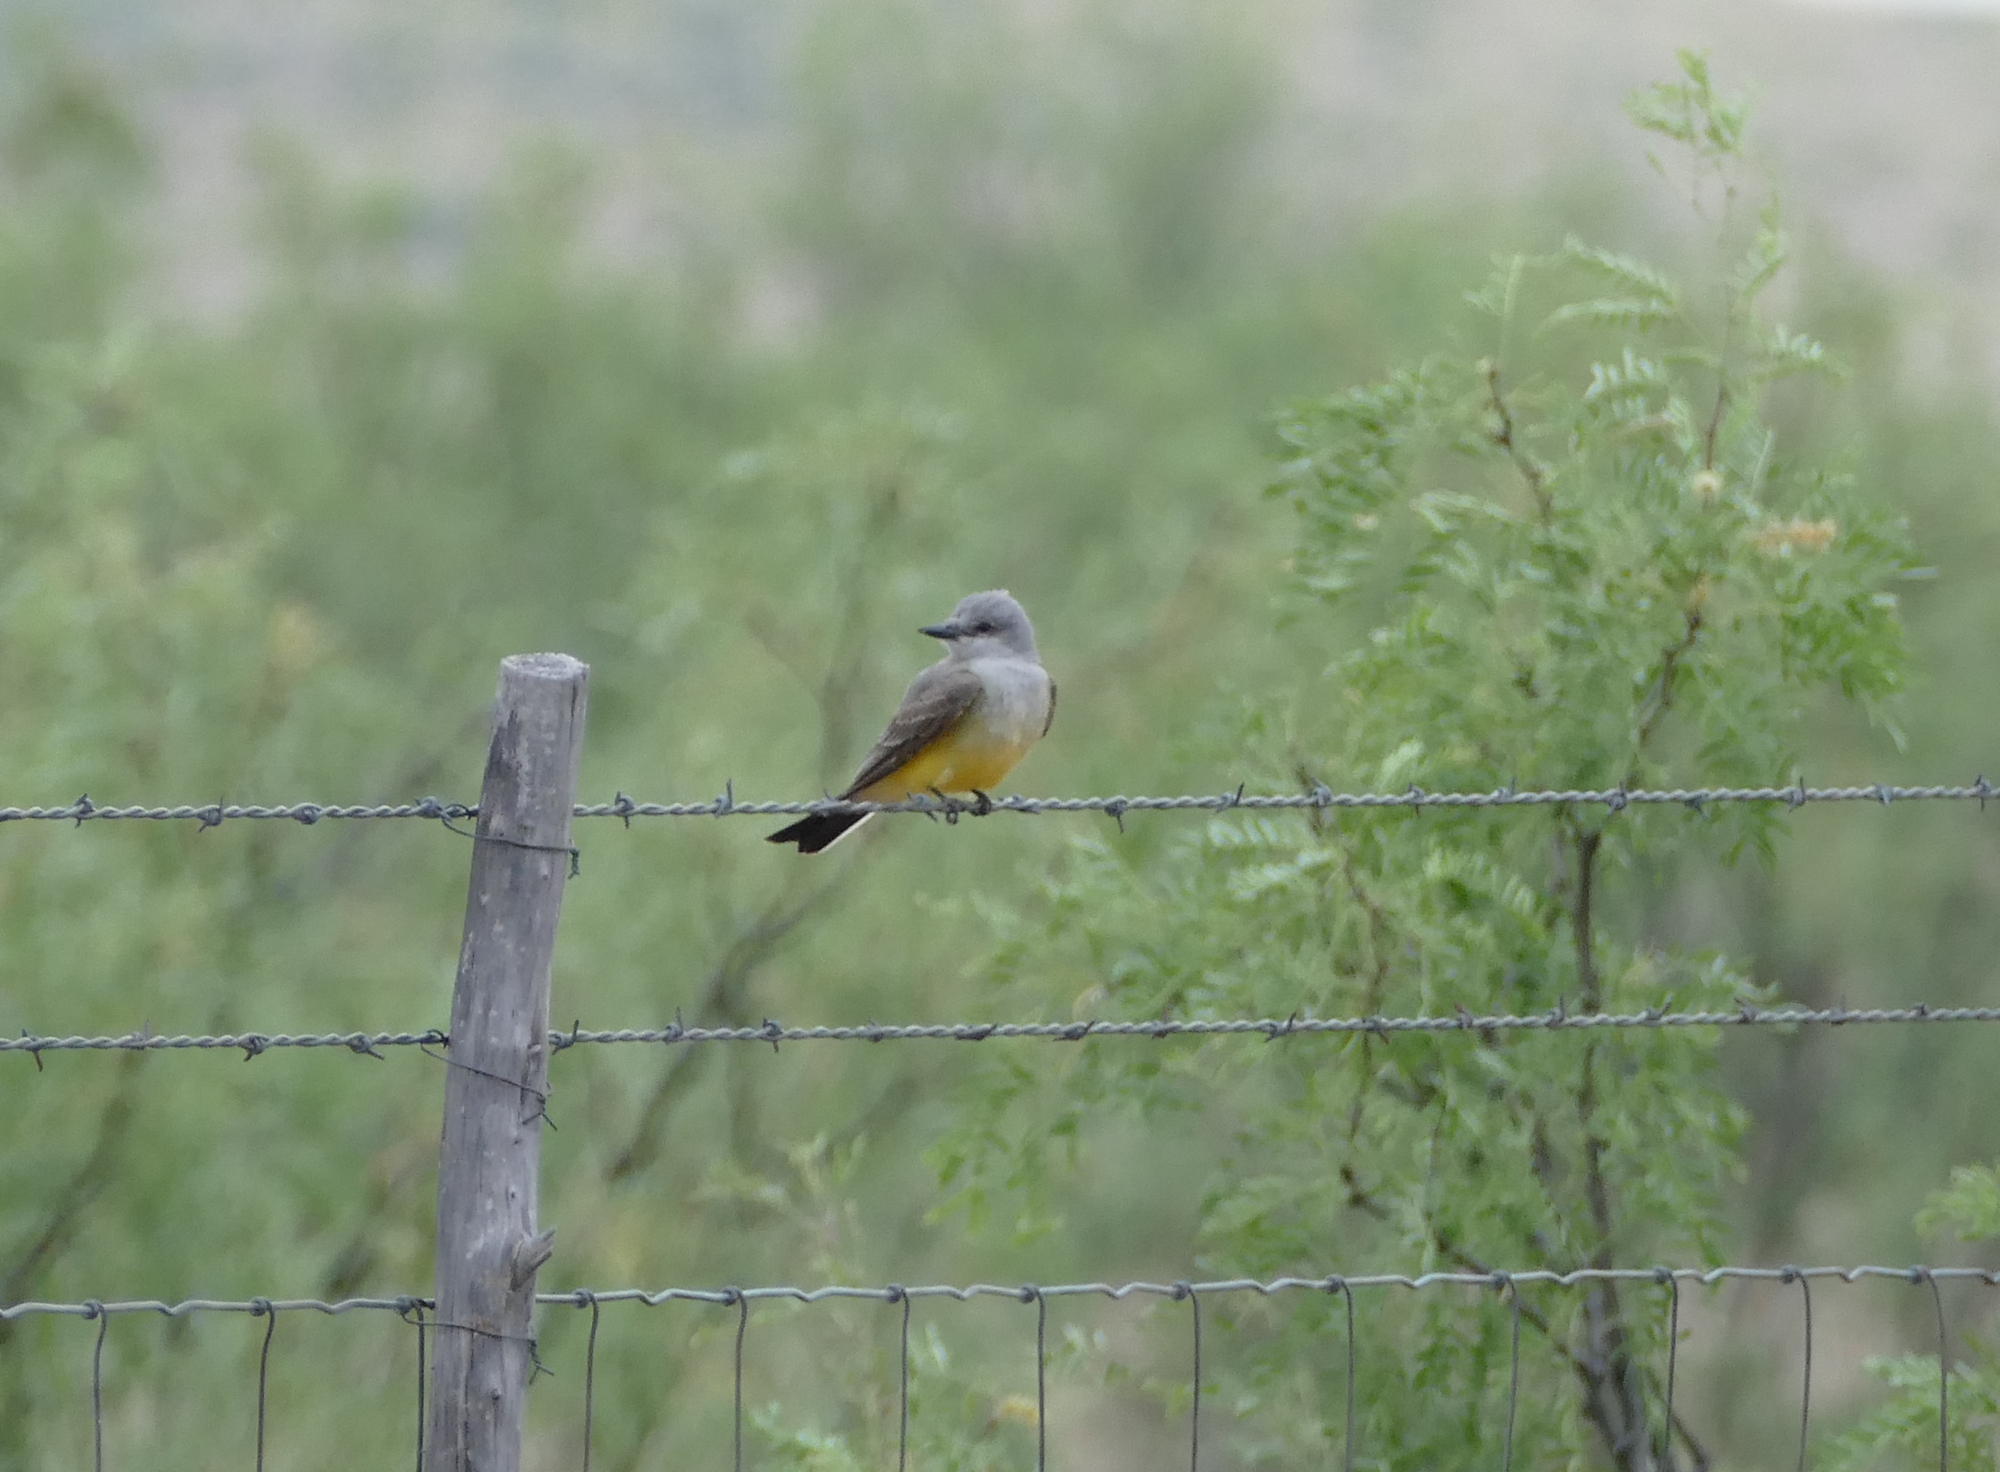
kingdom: Animalia
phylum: Chordata
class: Aves
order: Passeriformes
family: Tyrannidae
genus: Tyrannus
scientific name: Tyrannus verticalis
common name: Western kingbird
